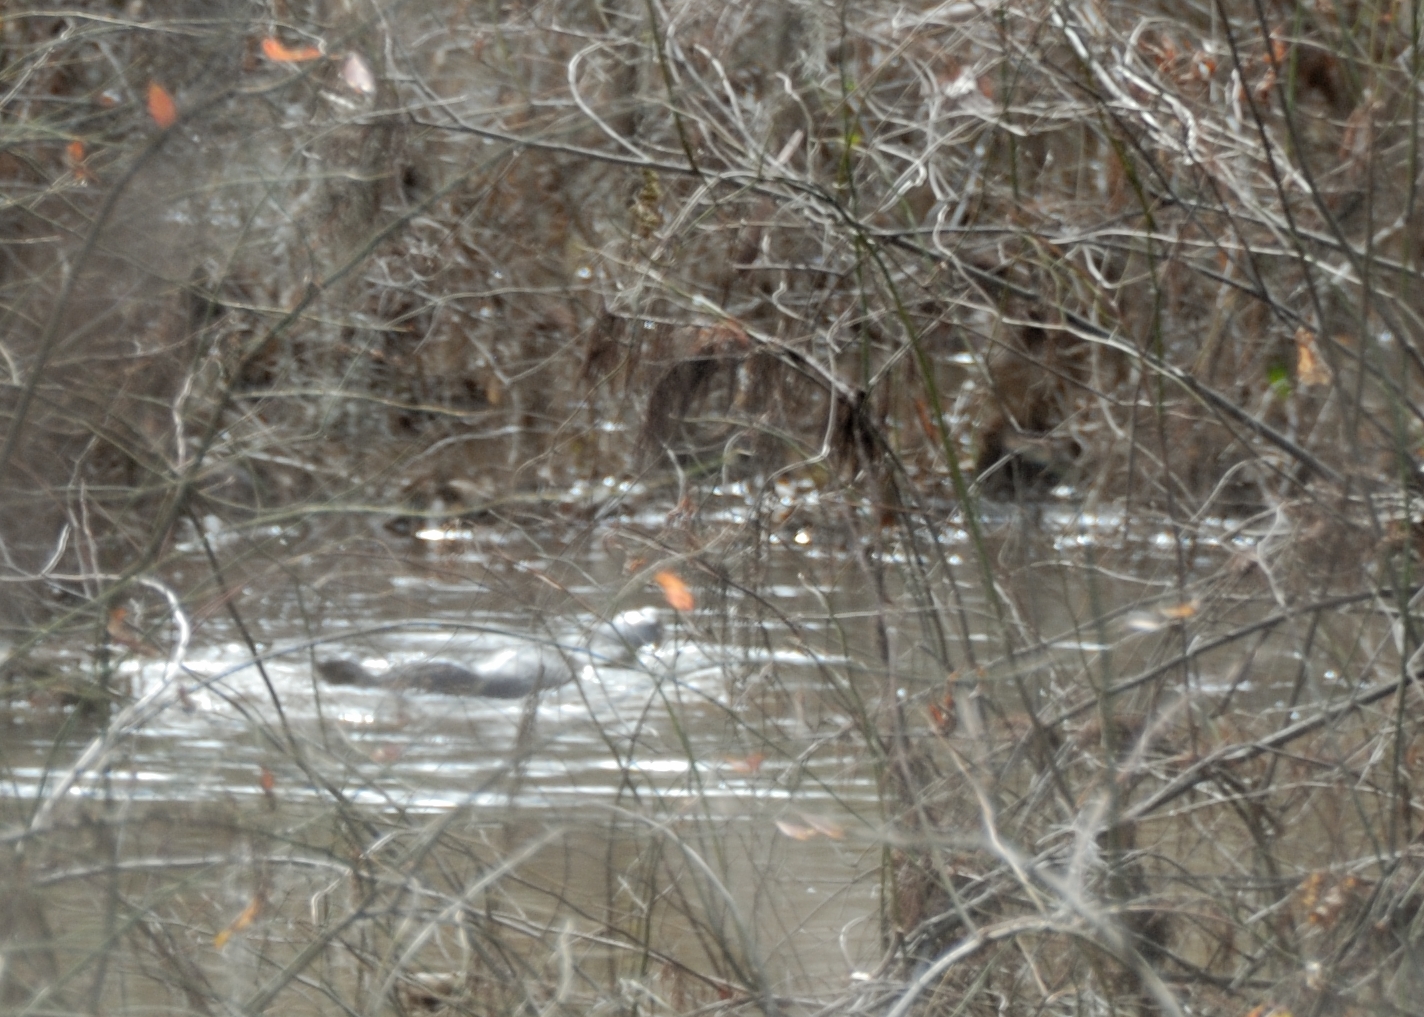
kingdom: Animalia
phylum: Chordata
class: Mammalia
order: Carnivora
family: Mustelidae
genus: Lontra
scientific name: Lontra canadensis
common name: North american river otter
